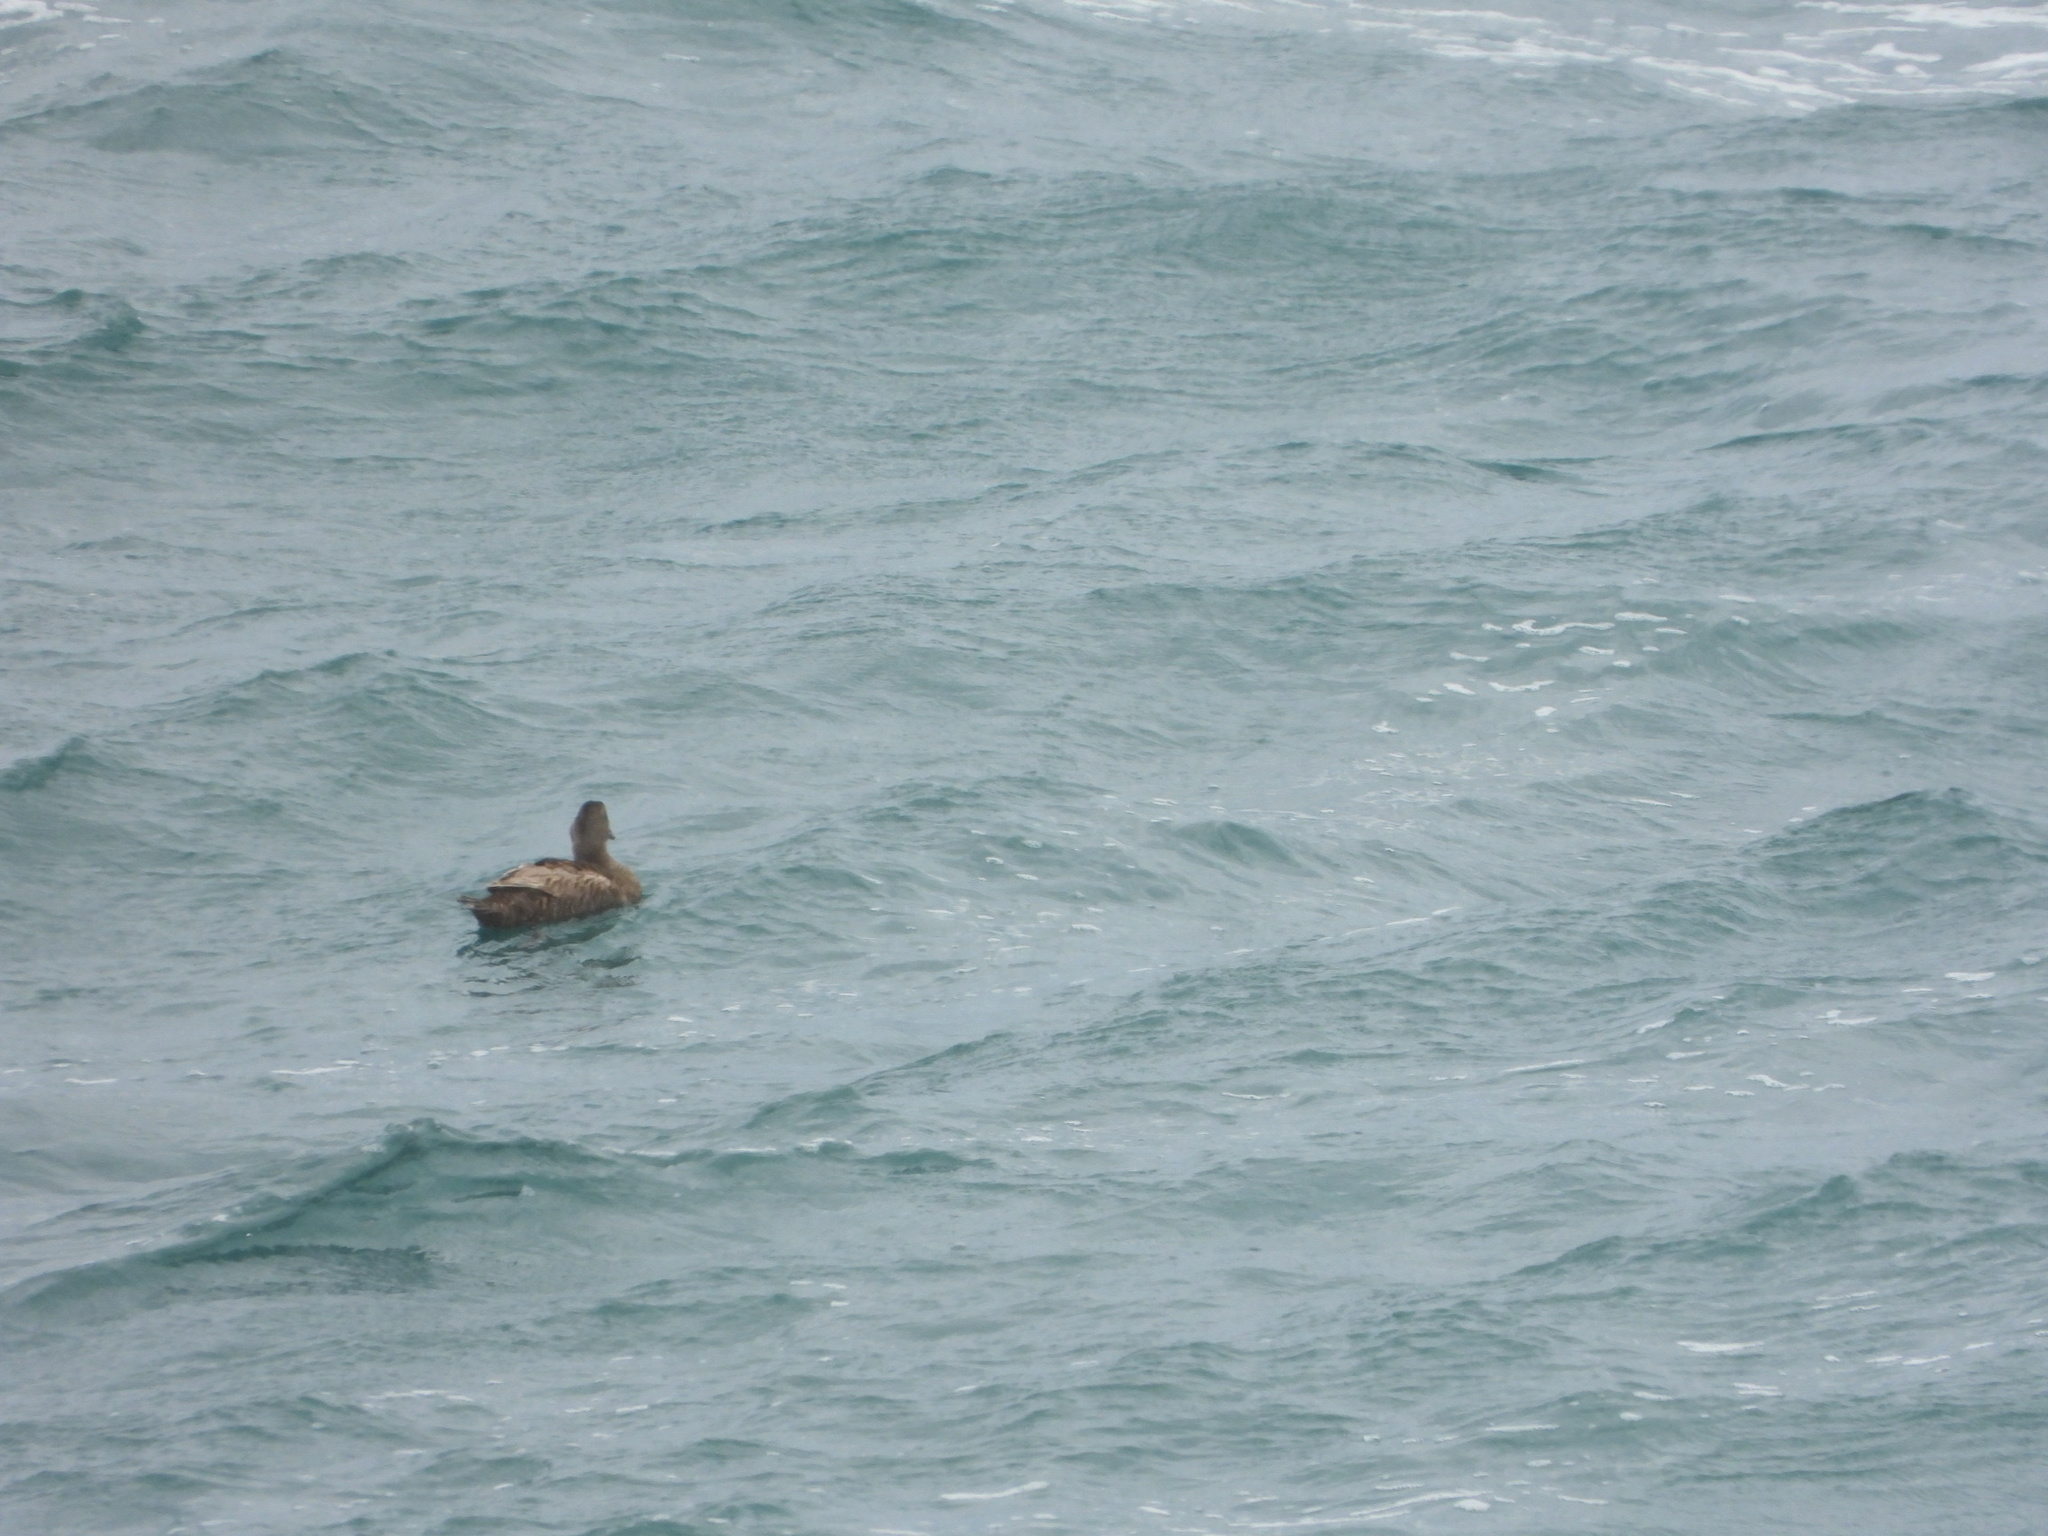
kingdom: Animalia
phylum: Chordata
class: Aves
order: Anseriformes
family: Anatidae
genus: Somateria
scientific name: Somateria mollissima
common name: Common eider
